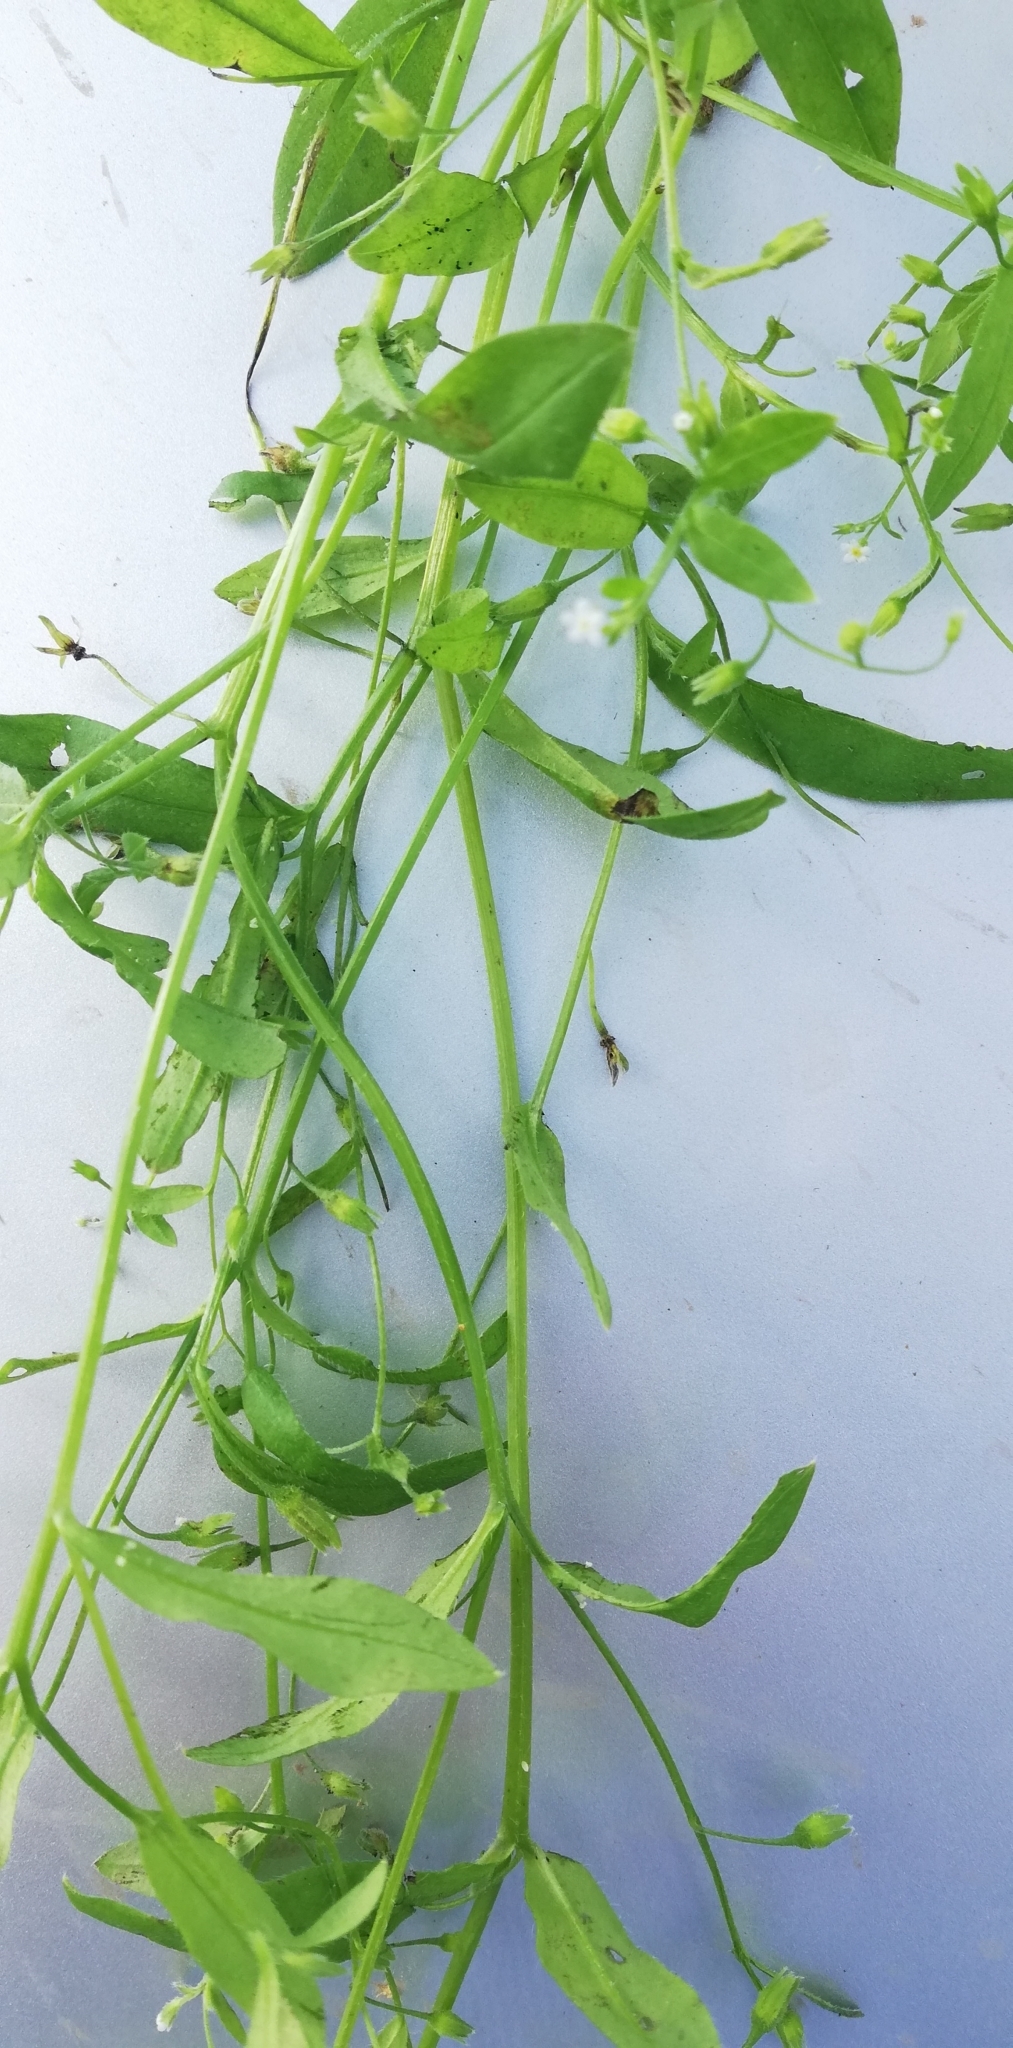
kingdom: Plantae
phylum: Tracheophyta
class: Magnoliopsida
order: Boraginales
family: Boraginaceae
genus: Myosotis
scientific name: Myosotis sparsiflora
